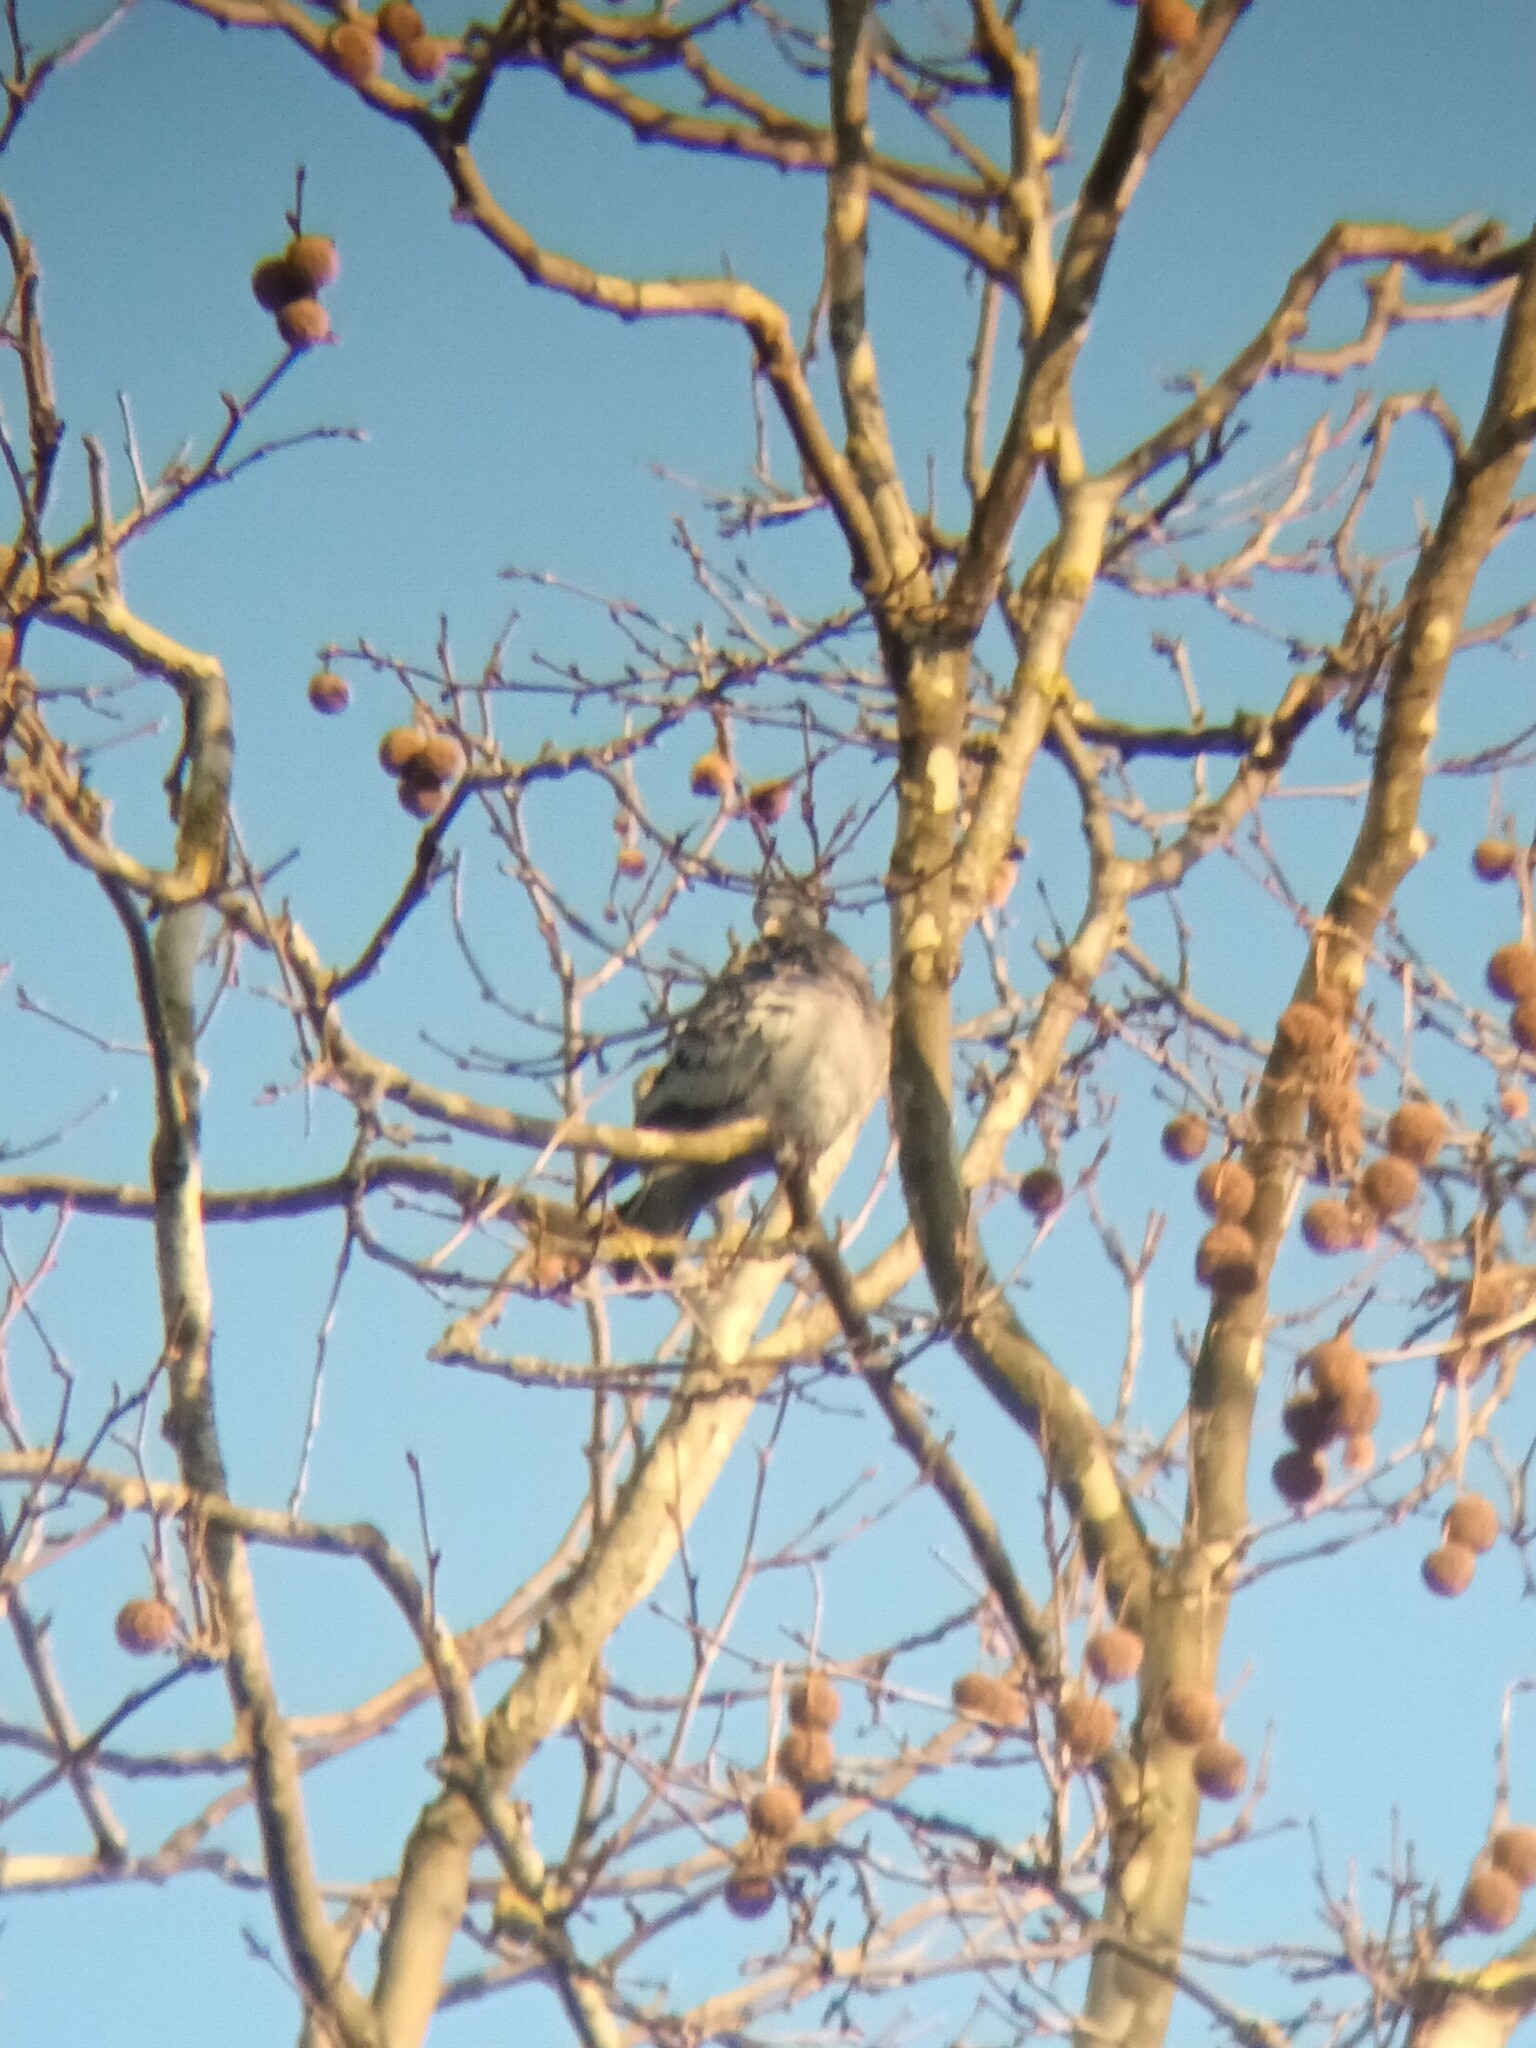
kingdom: Animalia
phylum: Chordata
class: Aves
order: Columbiformes
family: Columbidae
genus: Columba
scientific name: Columba oenas
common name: Stock dove
